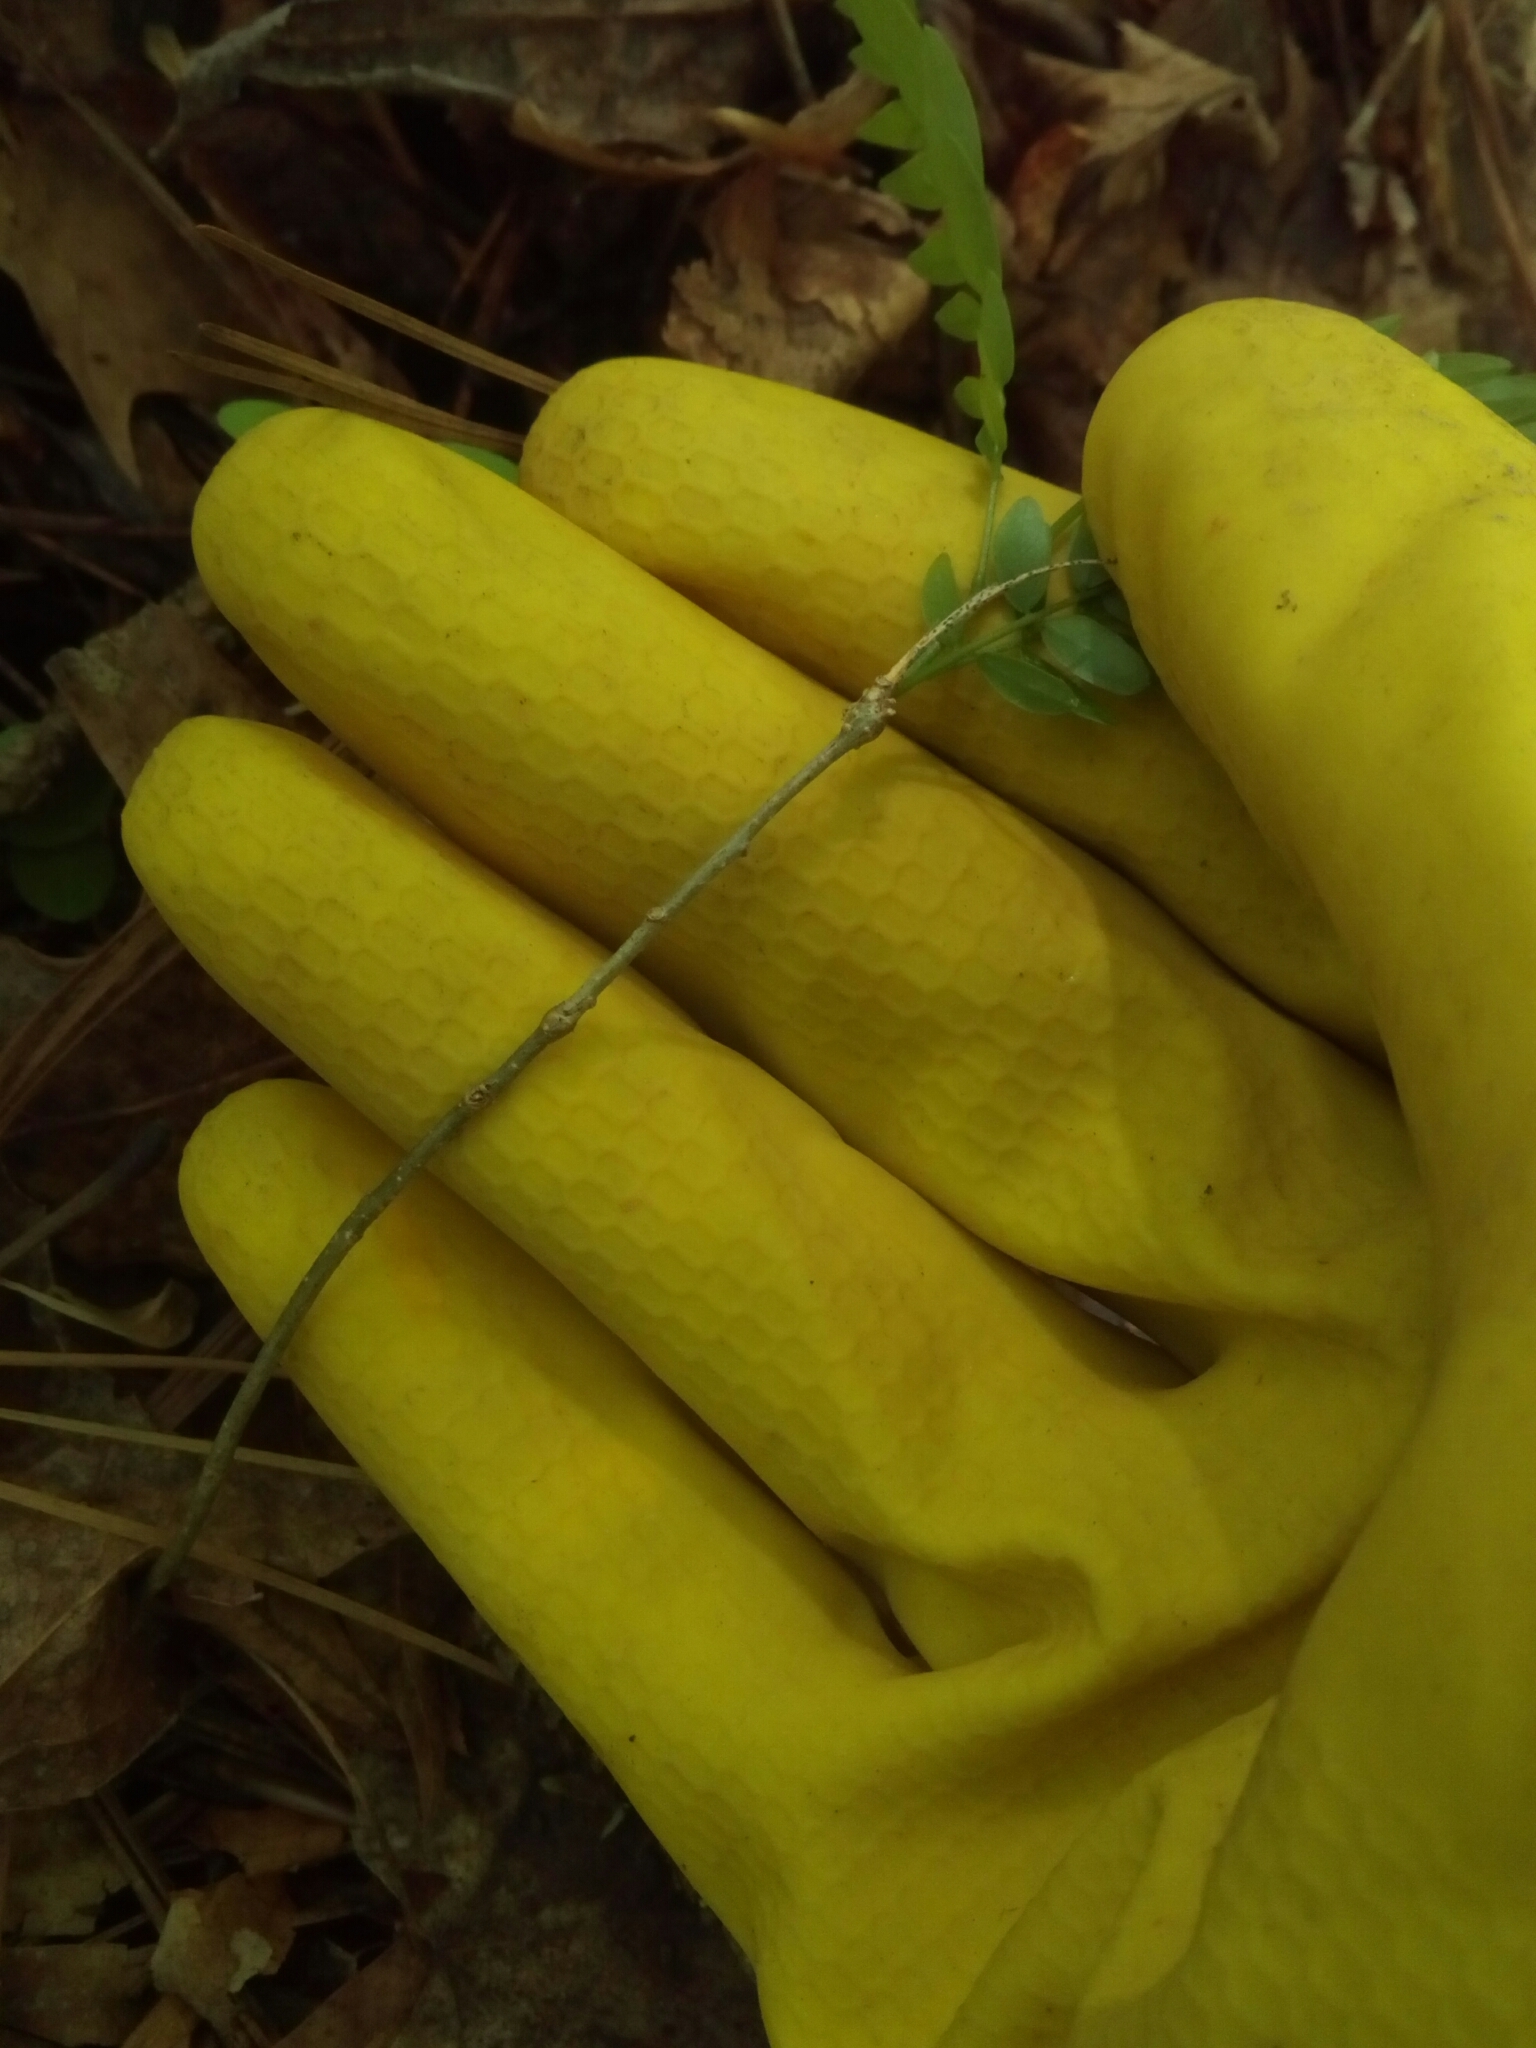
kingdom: Plantae
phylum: Tracheophyta
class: Magnoliopsida
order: Fabales
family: Fabaceae
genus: Gleditsia
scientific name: Gleditsia triacanthos
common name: Common honeylocust
